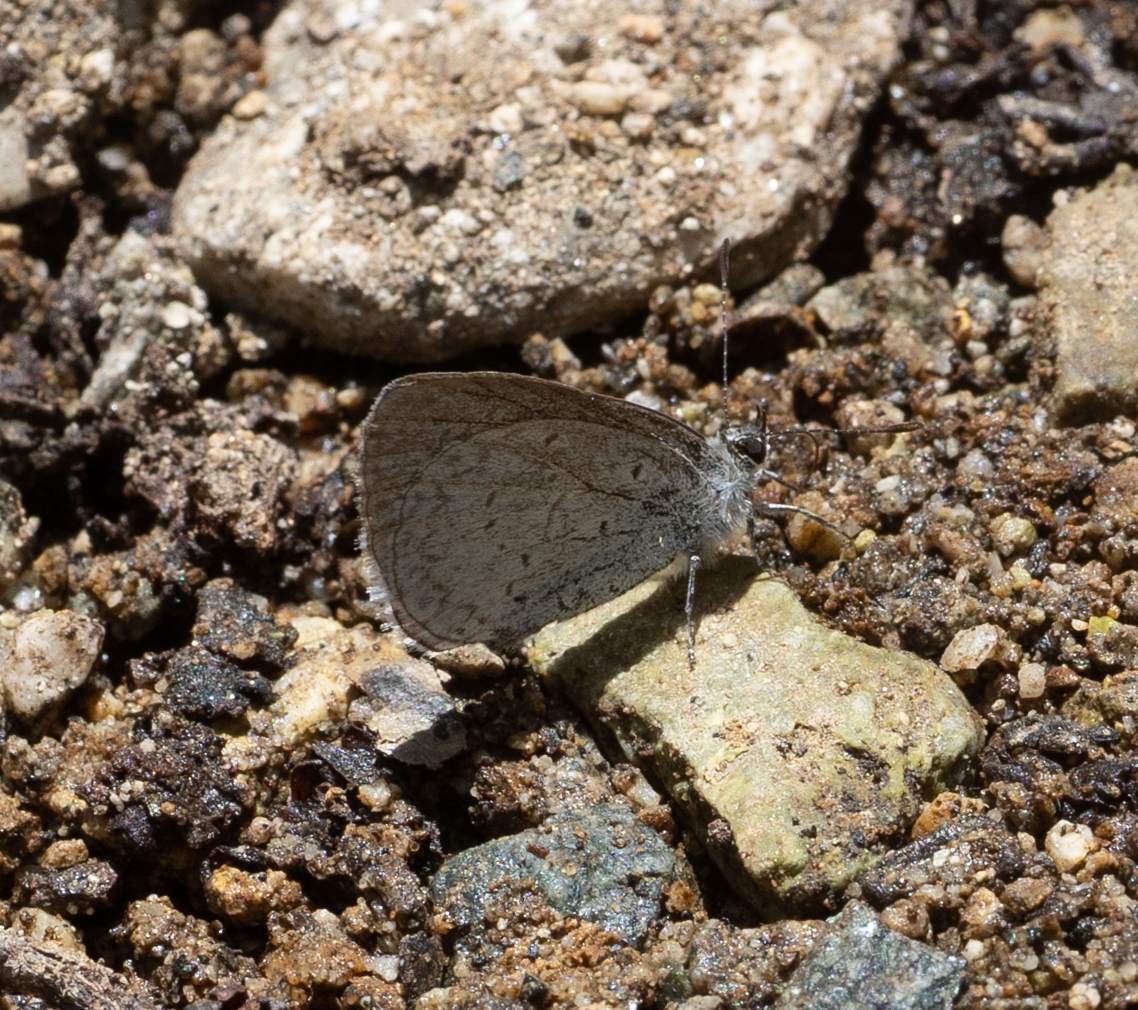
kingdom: Animalia
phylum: Arthropoda
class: Insecta
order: Lepidoptera
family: Lycaenidae
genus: Celastrina
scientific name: Celastrina ladon
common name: Spring azure
